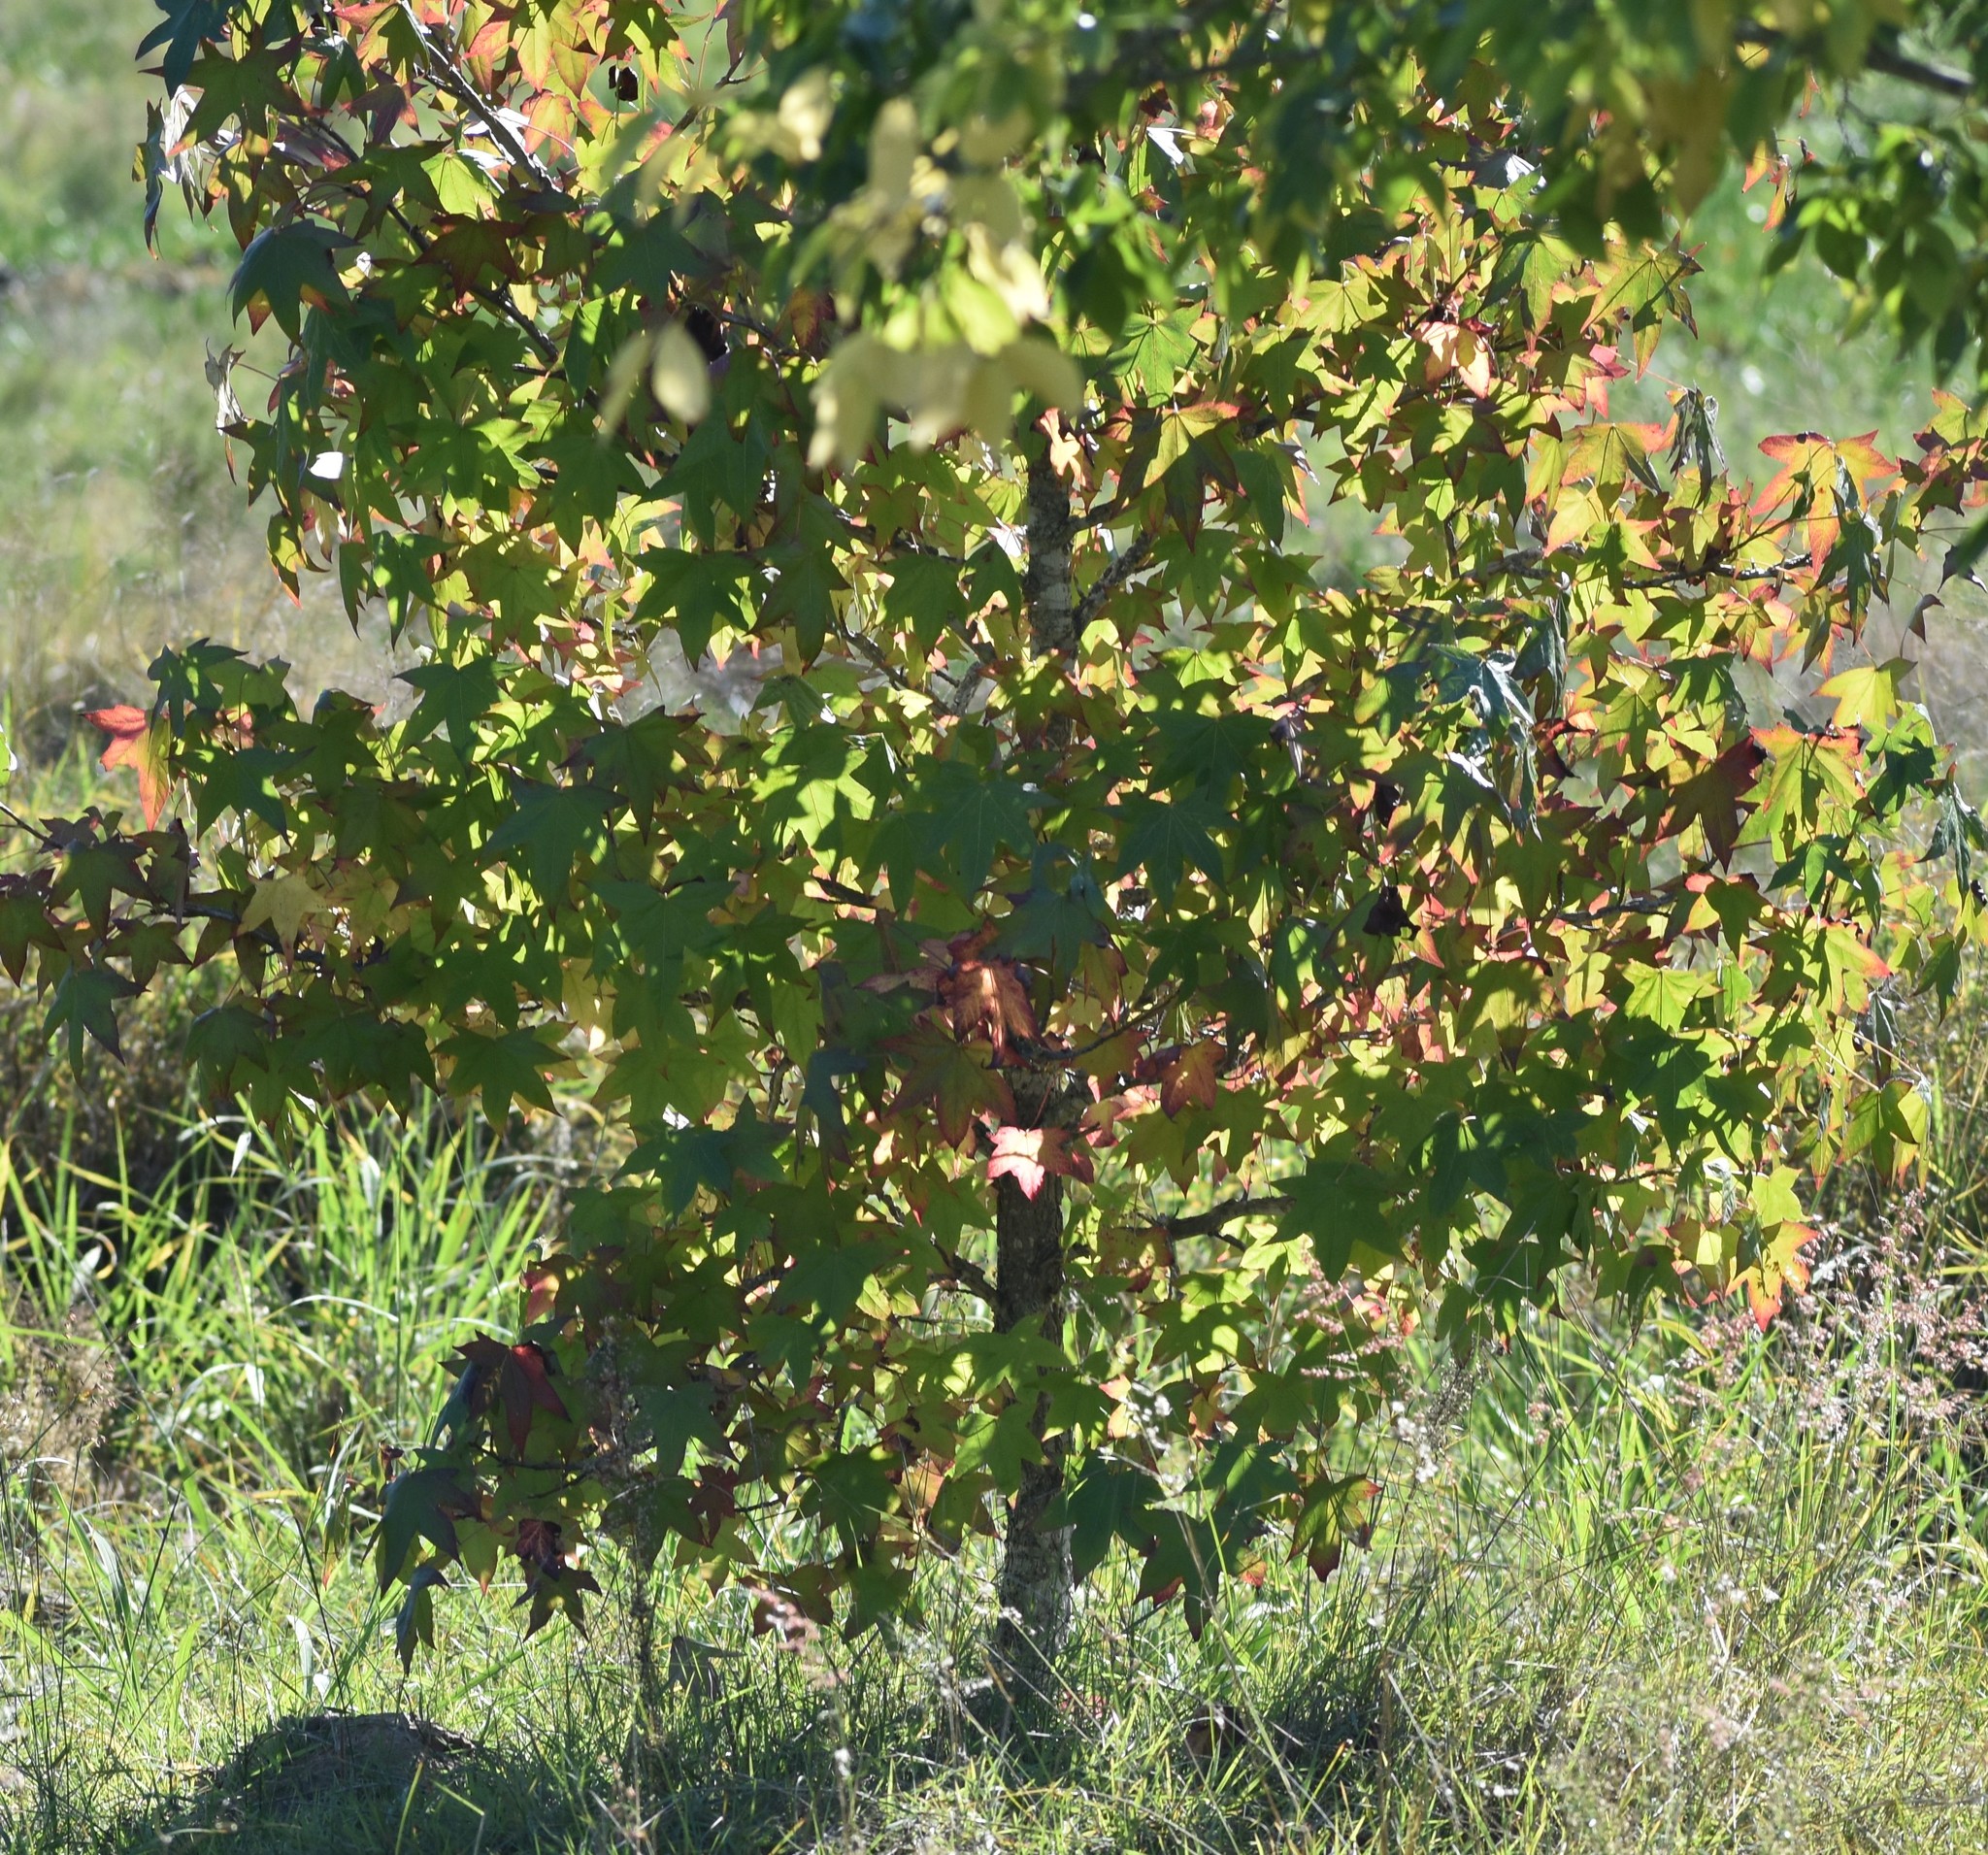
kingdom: Plantae
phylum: Tracheophyta
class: Magnoliopsida
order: Saxifragales
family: Altingiaceae
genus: Liquidambar
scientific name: Liquidambar styraciflua
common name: Sweet gum
